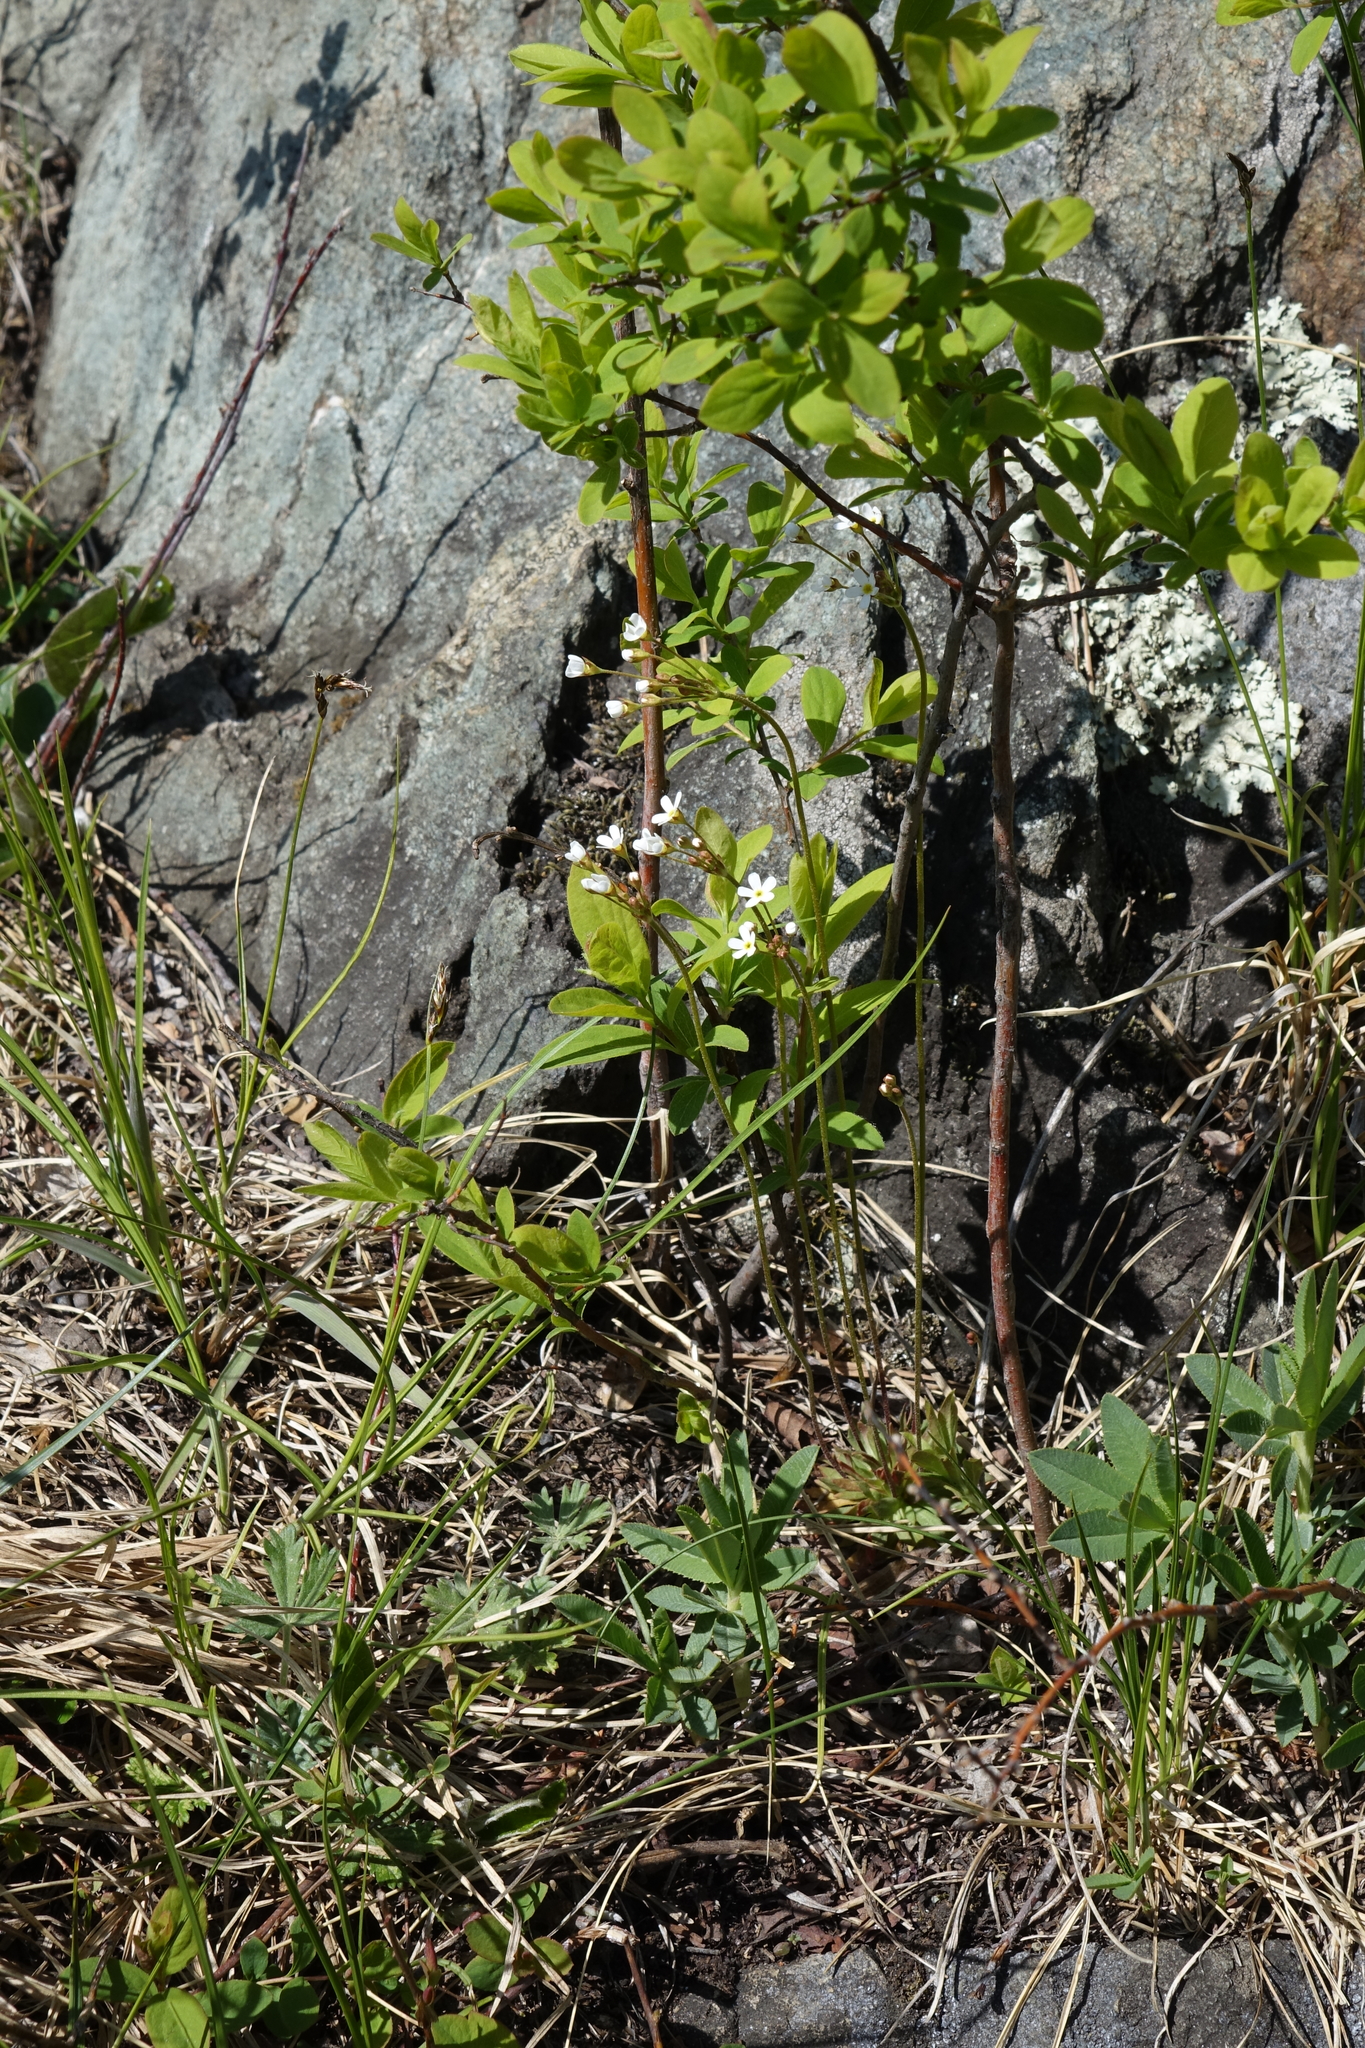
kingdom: Plantae
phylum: Tracheophyta
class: Magnoliopsida
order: Ericales
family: Primulaceae
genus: Androsace
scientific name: Androsace lactiflora
